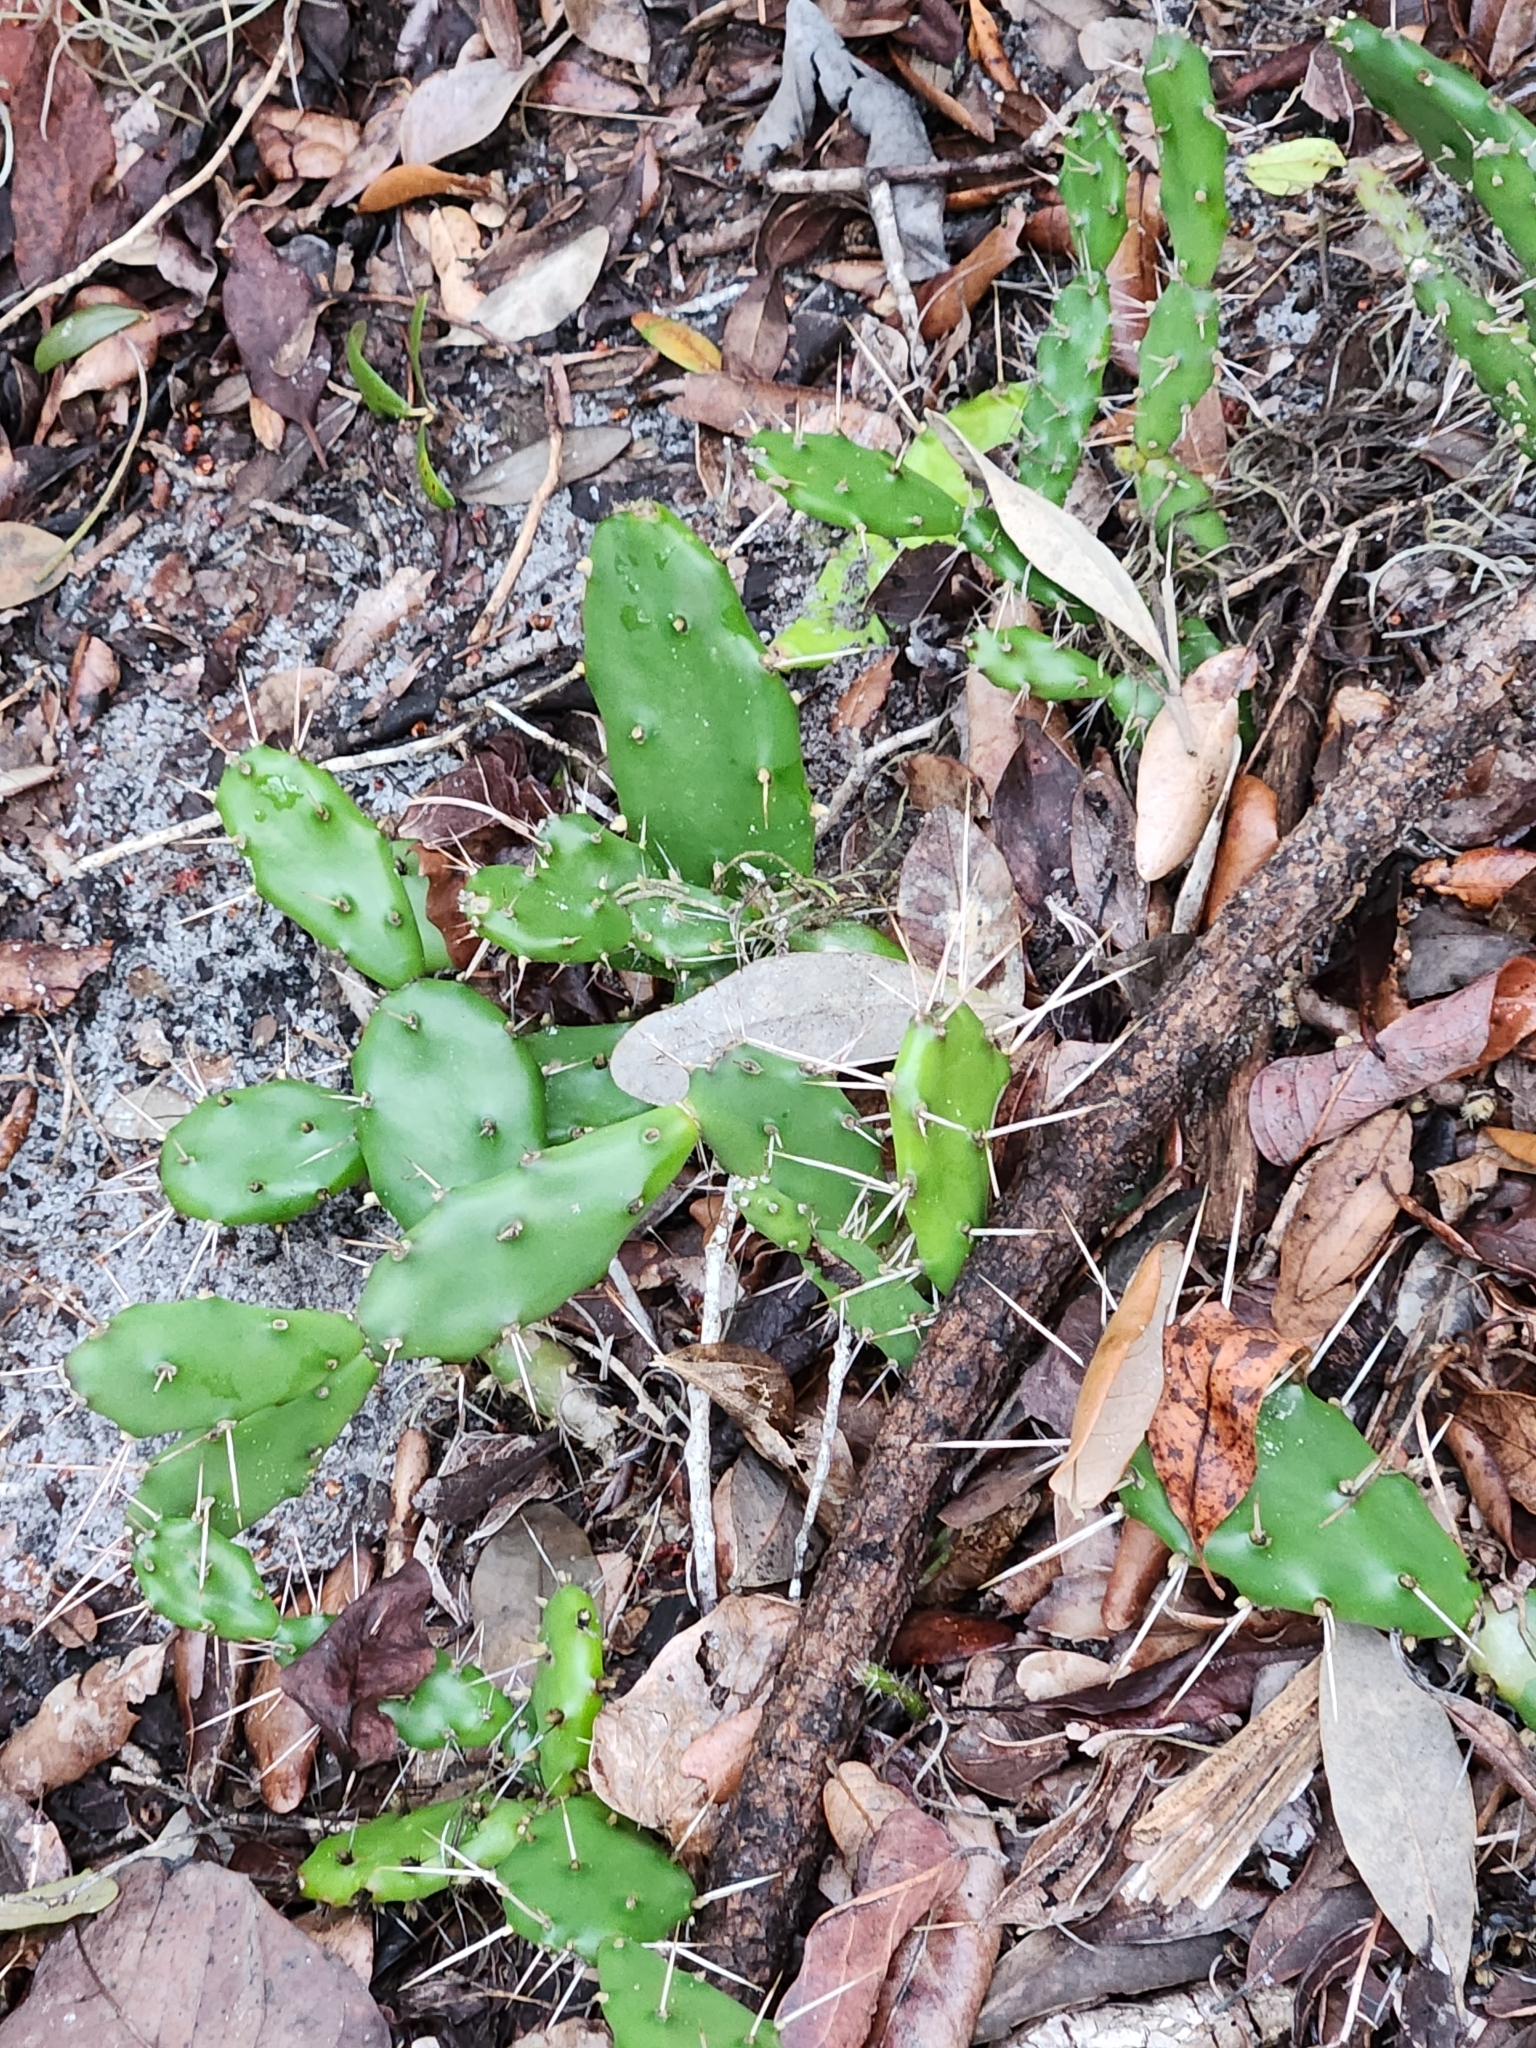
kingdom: Plantae
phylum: Tracheophyta
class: Magnoliopsida
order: Caryophyllales
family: Cactaceae
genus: Opuntia
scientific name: Opuntia austrina
